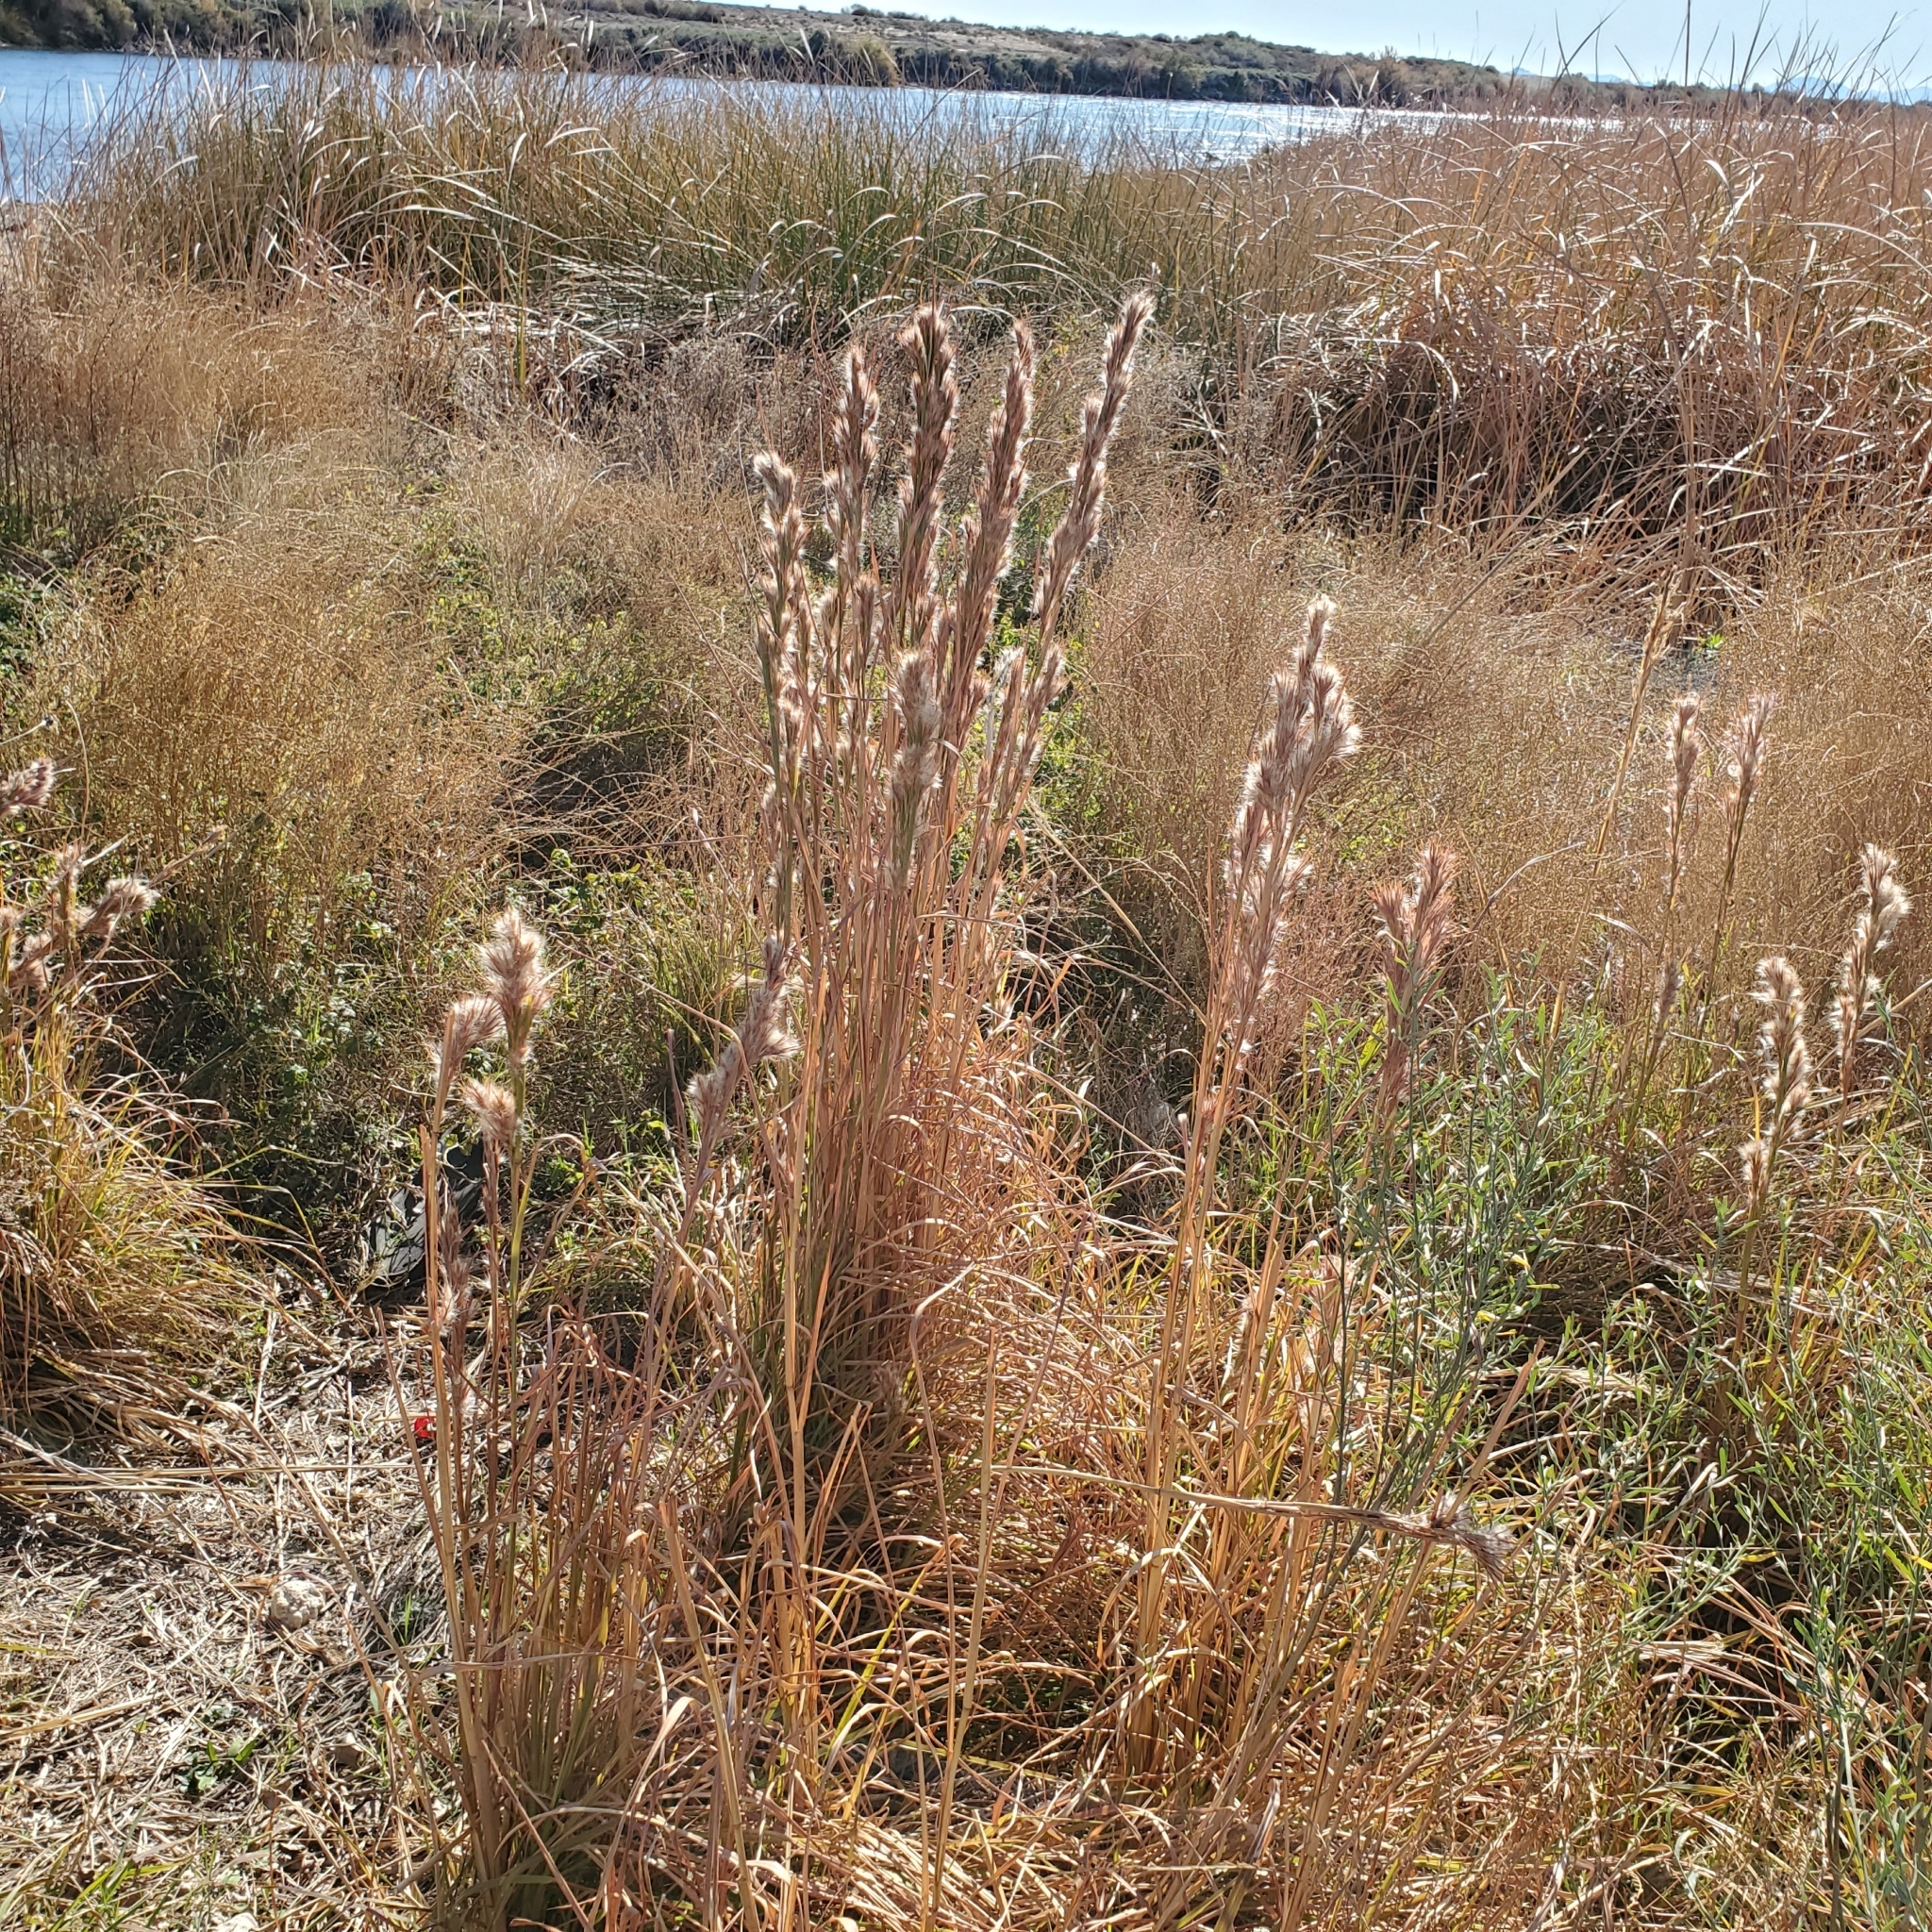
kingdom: Plantae
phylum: Tracheophyta
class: Liliopsida
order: Poales
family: Poaceae
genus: Andropogon
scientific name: Andropogon eremicus
